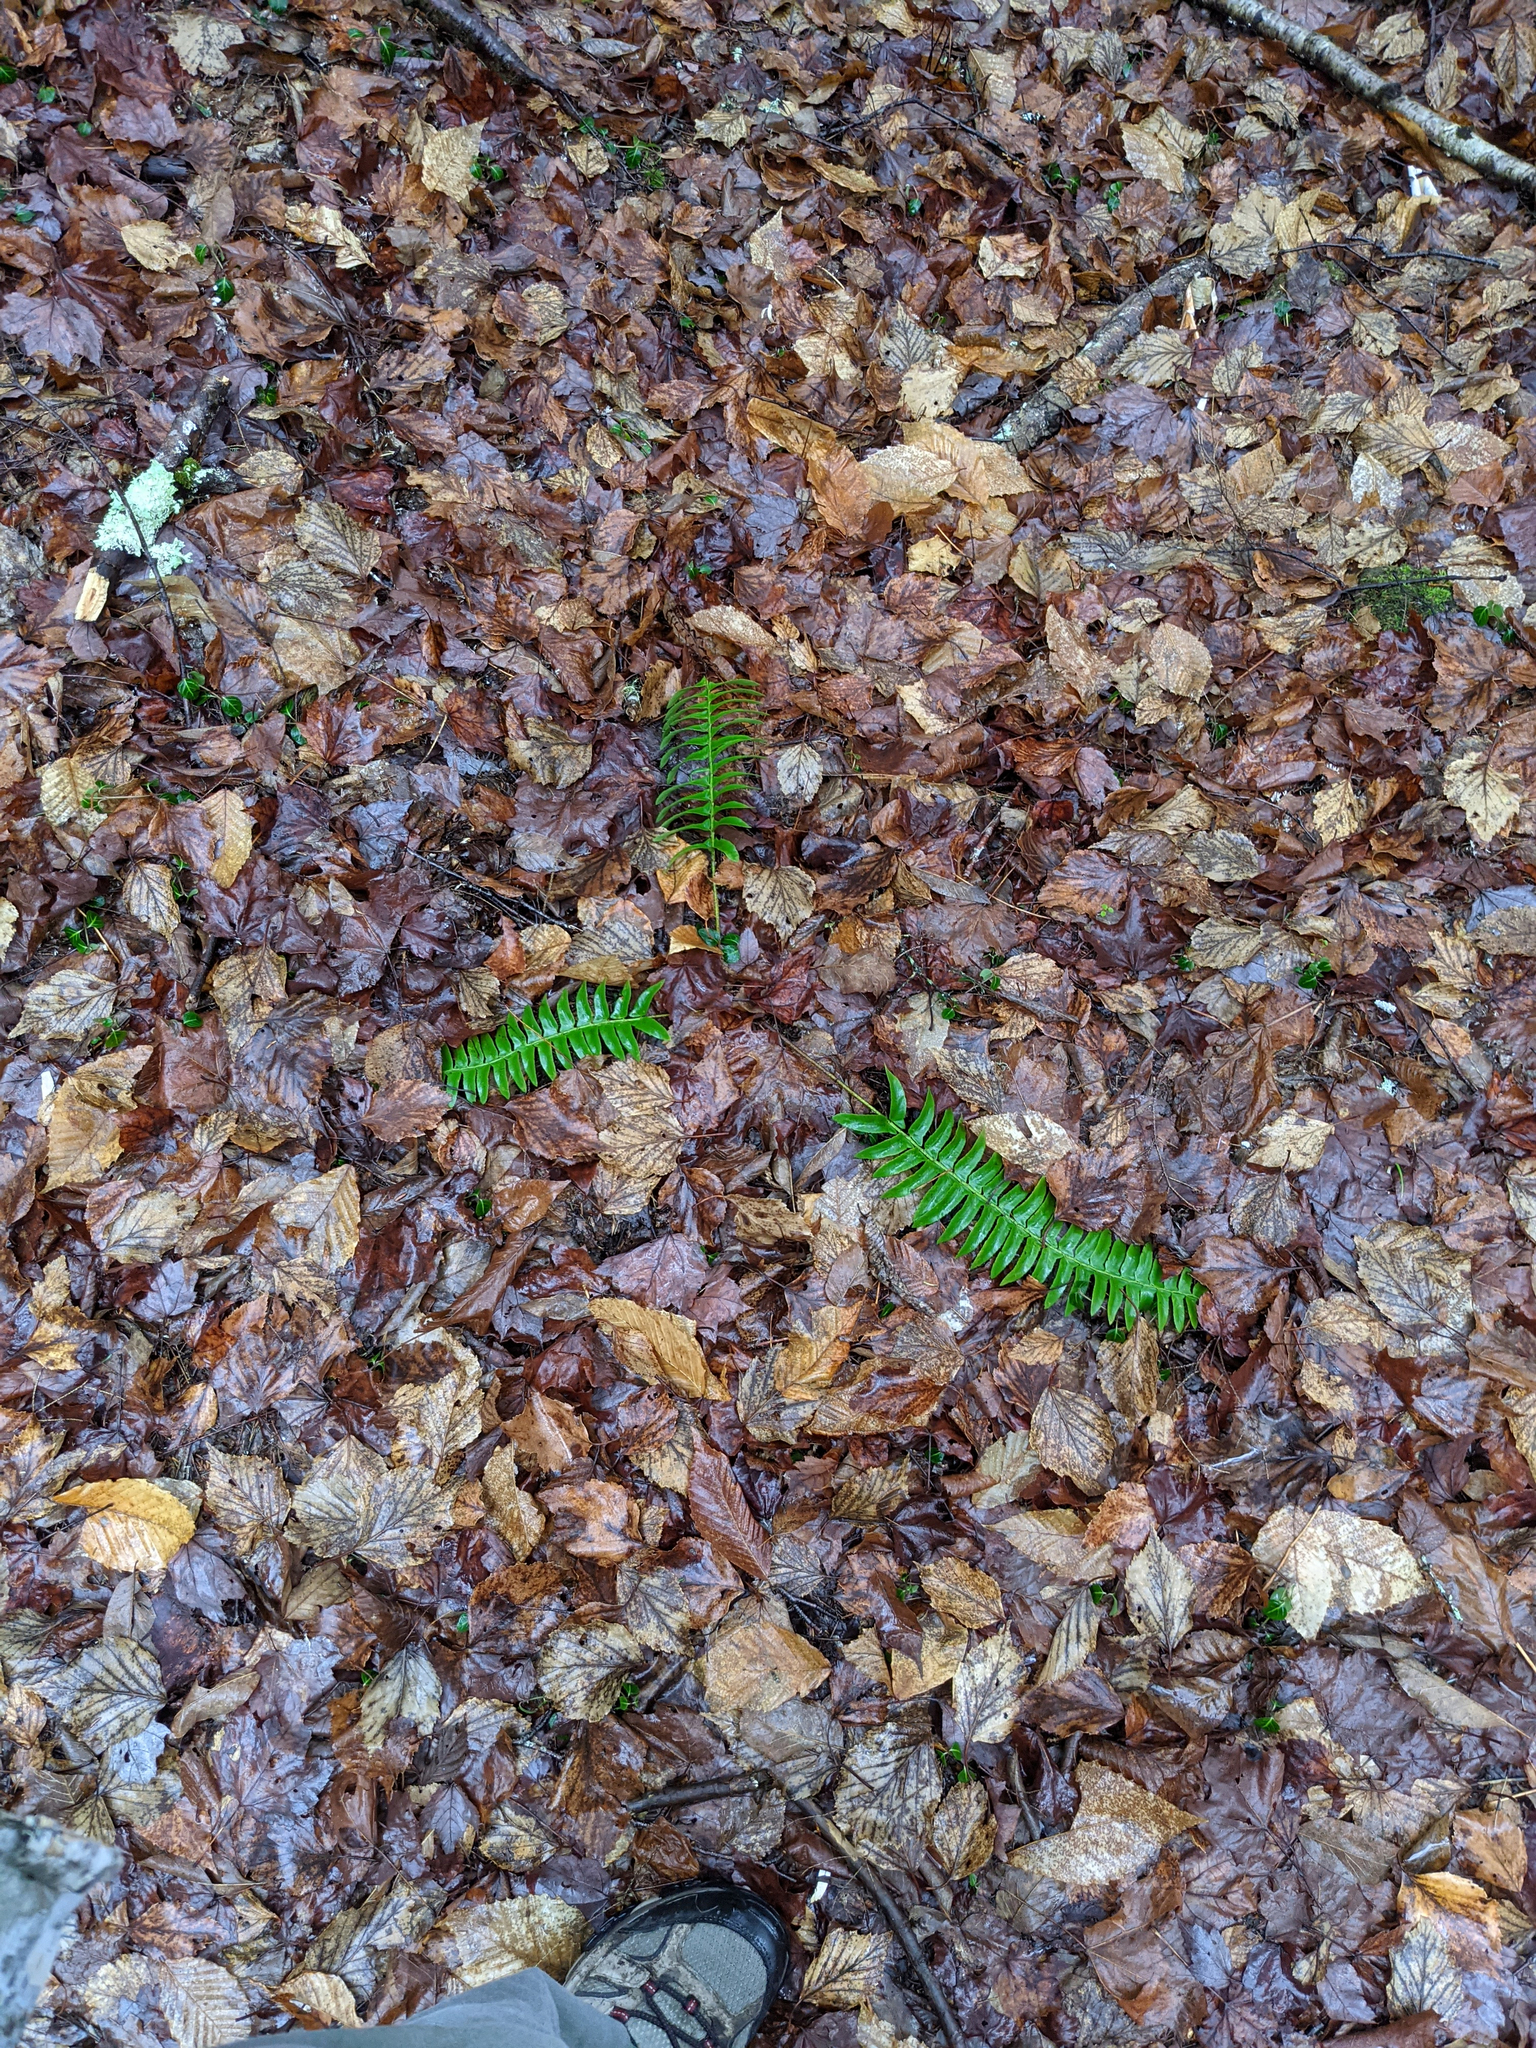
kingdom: Plantae
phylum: Tracheophyta
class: Polypodiopsida
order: Polypodiales
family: Dryopteridaceae
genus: Polystichum
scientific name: Polystichum acrostichoides
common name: Christmas fern
